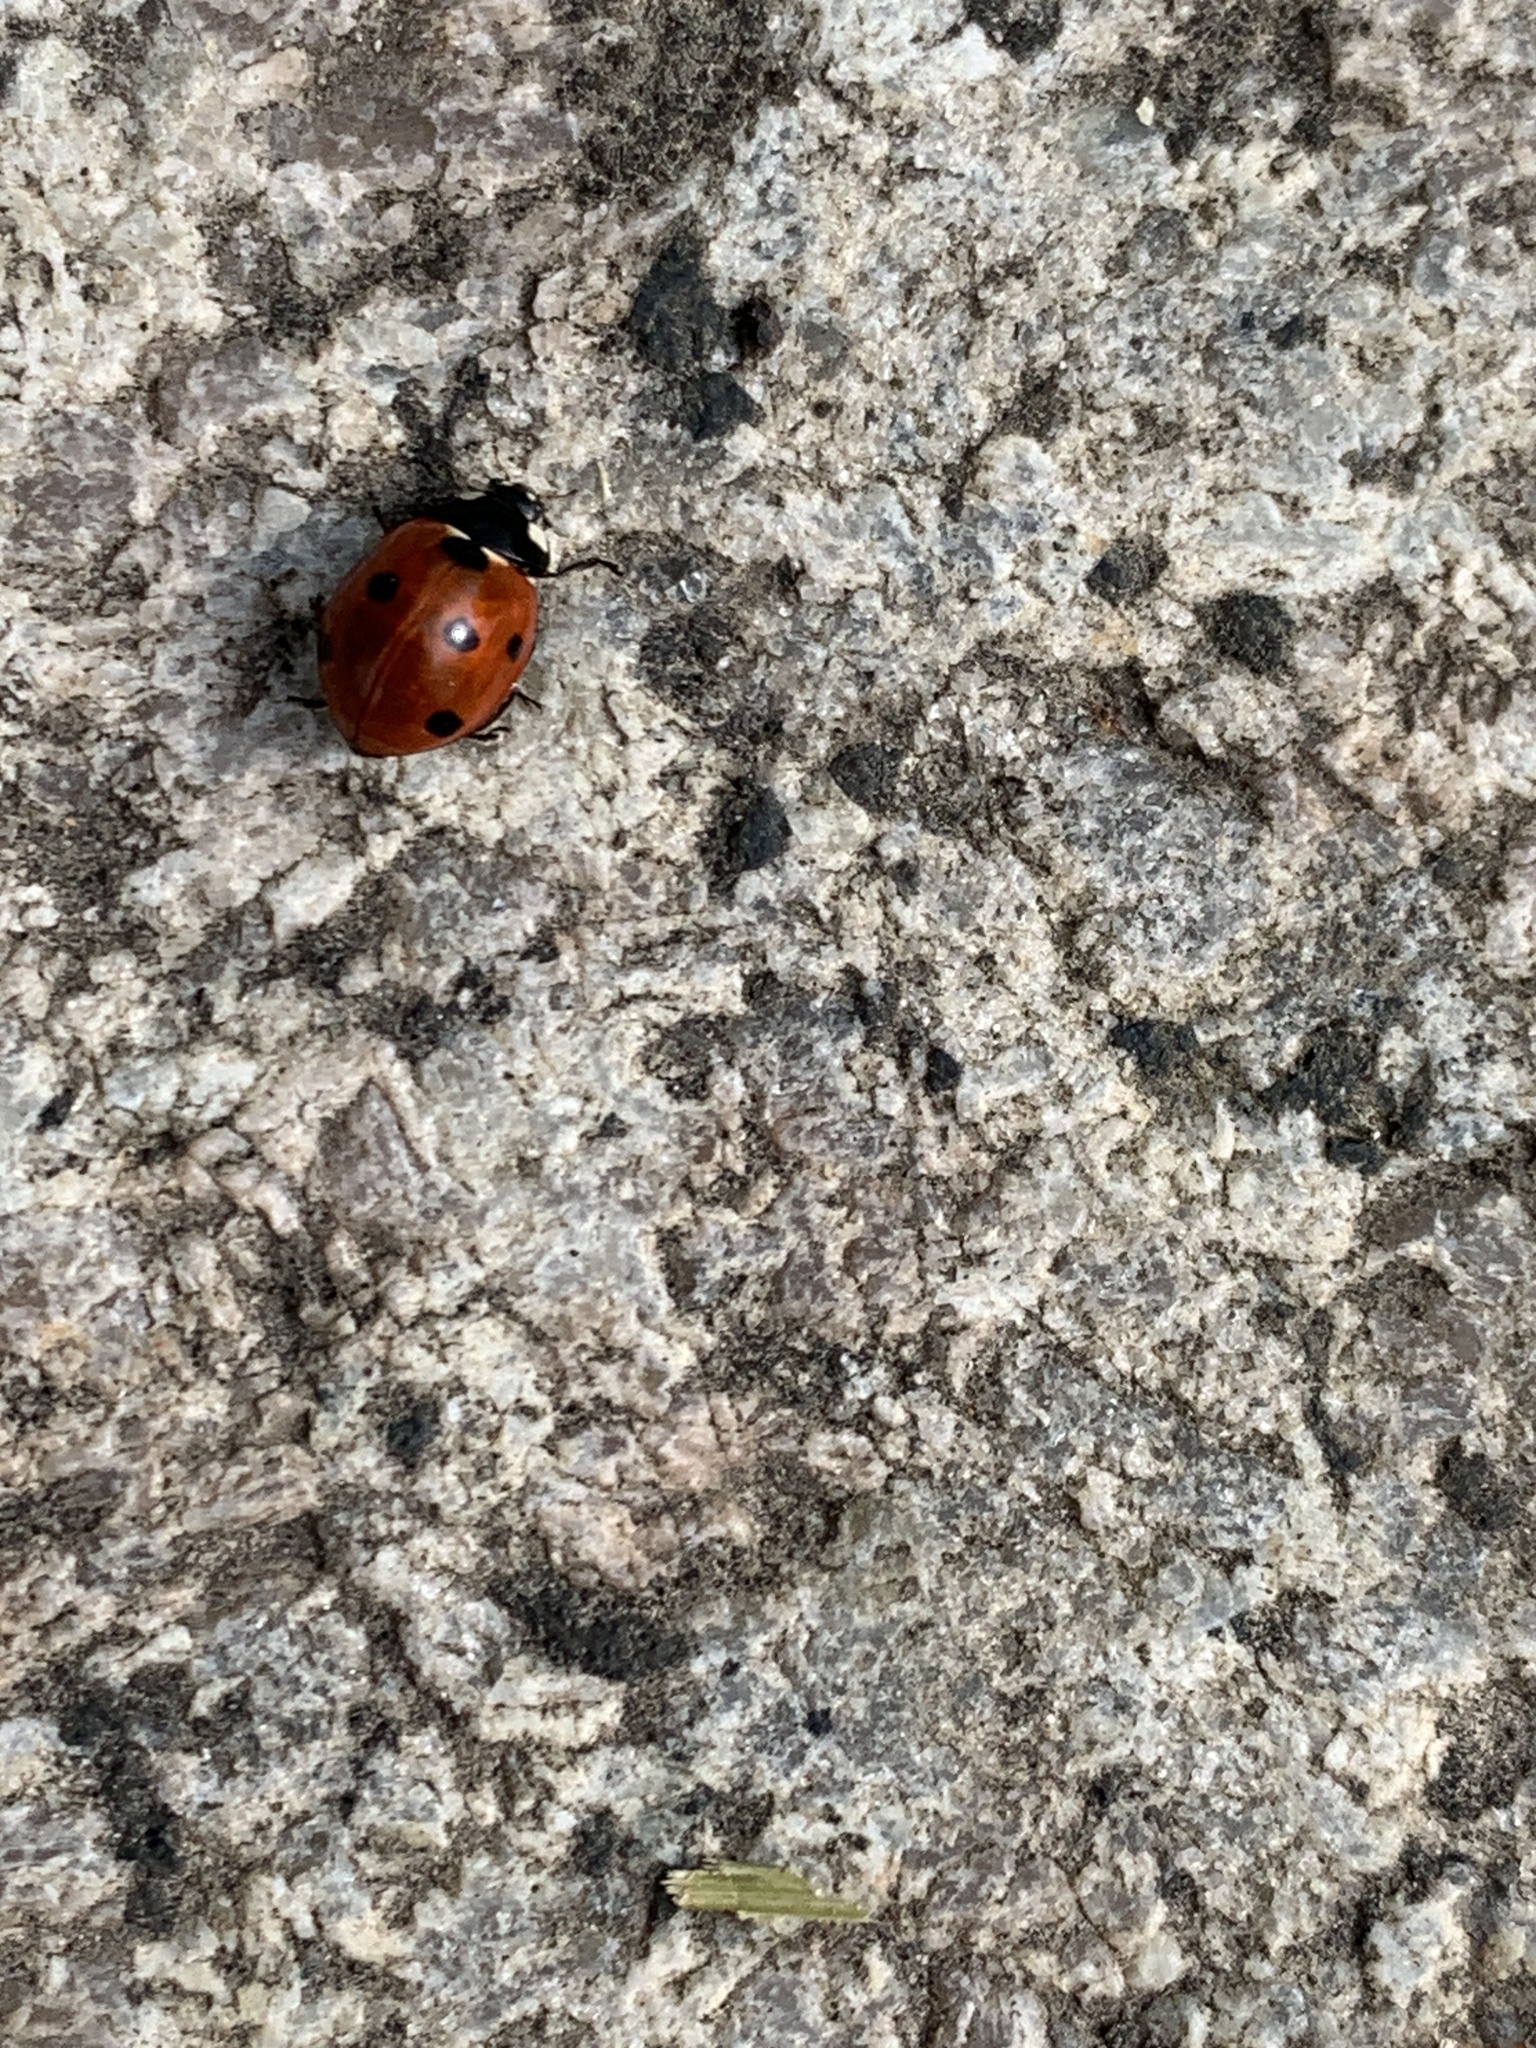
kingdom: Animalia
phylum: Arthropoda
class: Insecta
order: Coleoptera
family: Coccinellidae
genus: Coccinella
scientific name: Coccinella septempunctata
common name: Sevenspotted lady beetle
